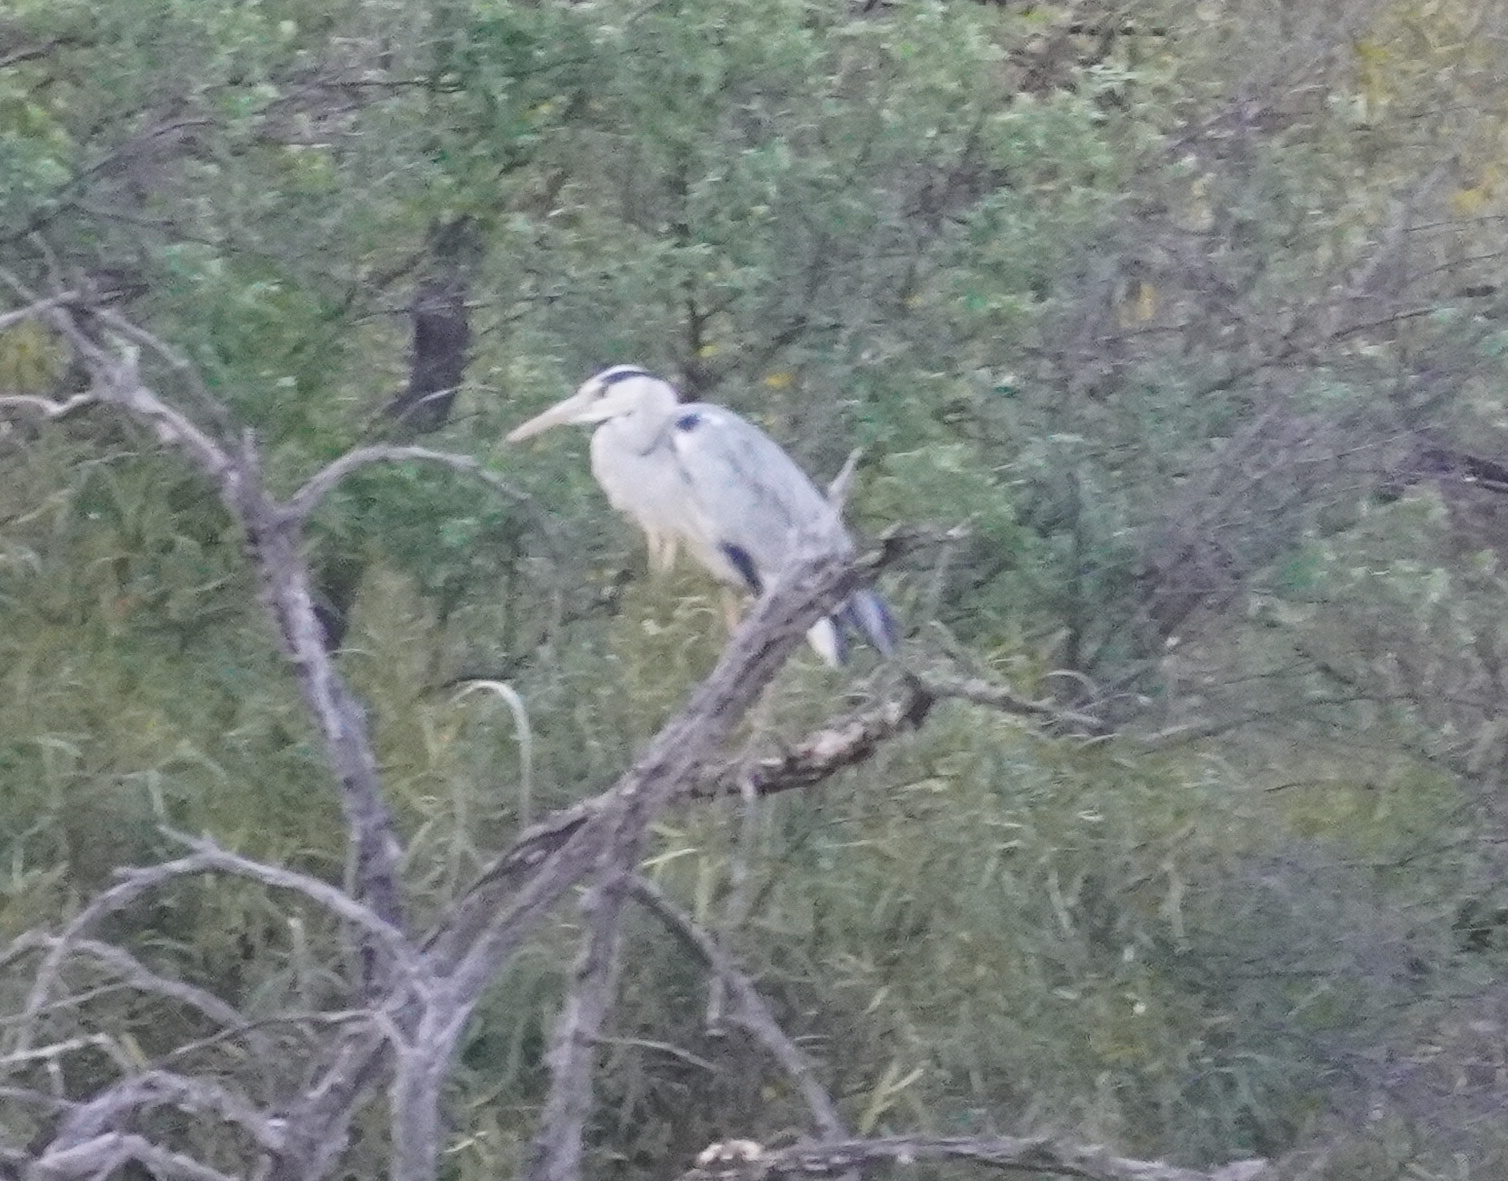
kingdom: Animalia
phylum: Chordata
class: Aves
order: Pelecaniformes
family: Ardeidae
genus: Ardea
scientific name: Ardea cinerea
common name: Grey heron
